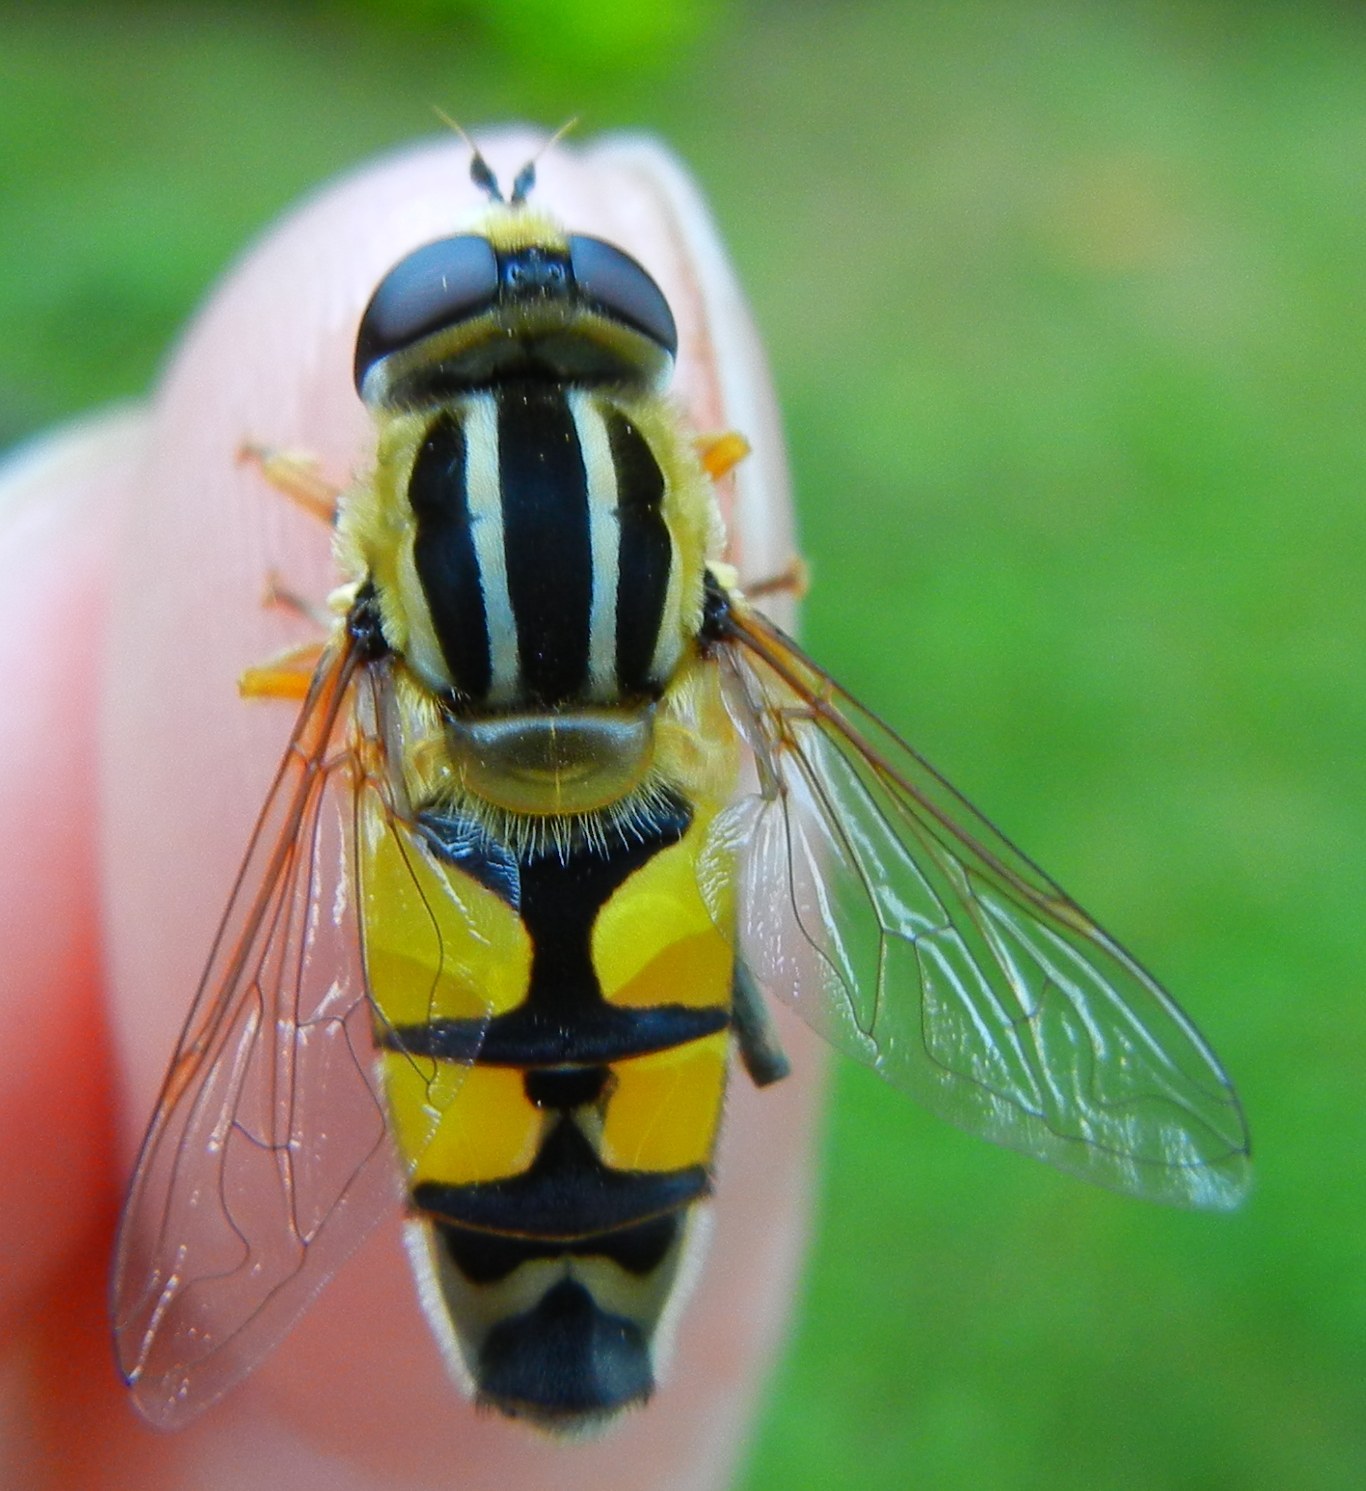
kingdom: Animalia
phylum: Arthropoda
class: Insecta
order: Diptera
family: Syrphidae
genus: Helophilus
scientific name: Helophilus trivittatus
